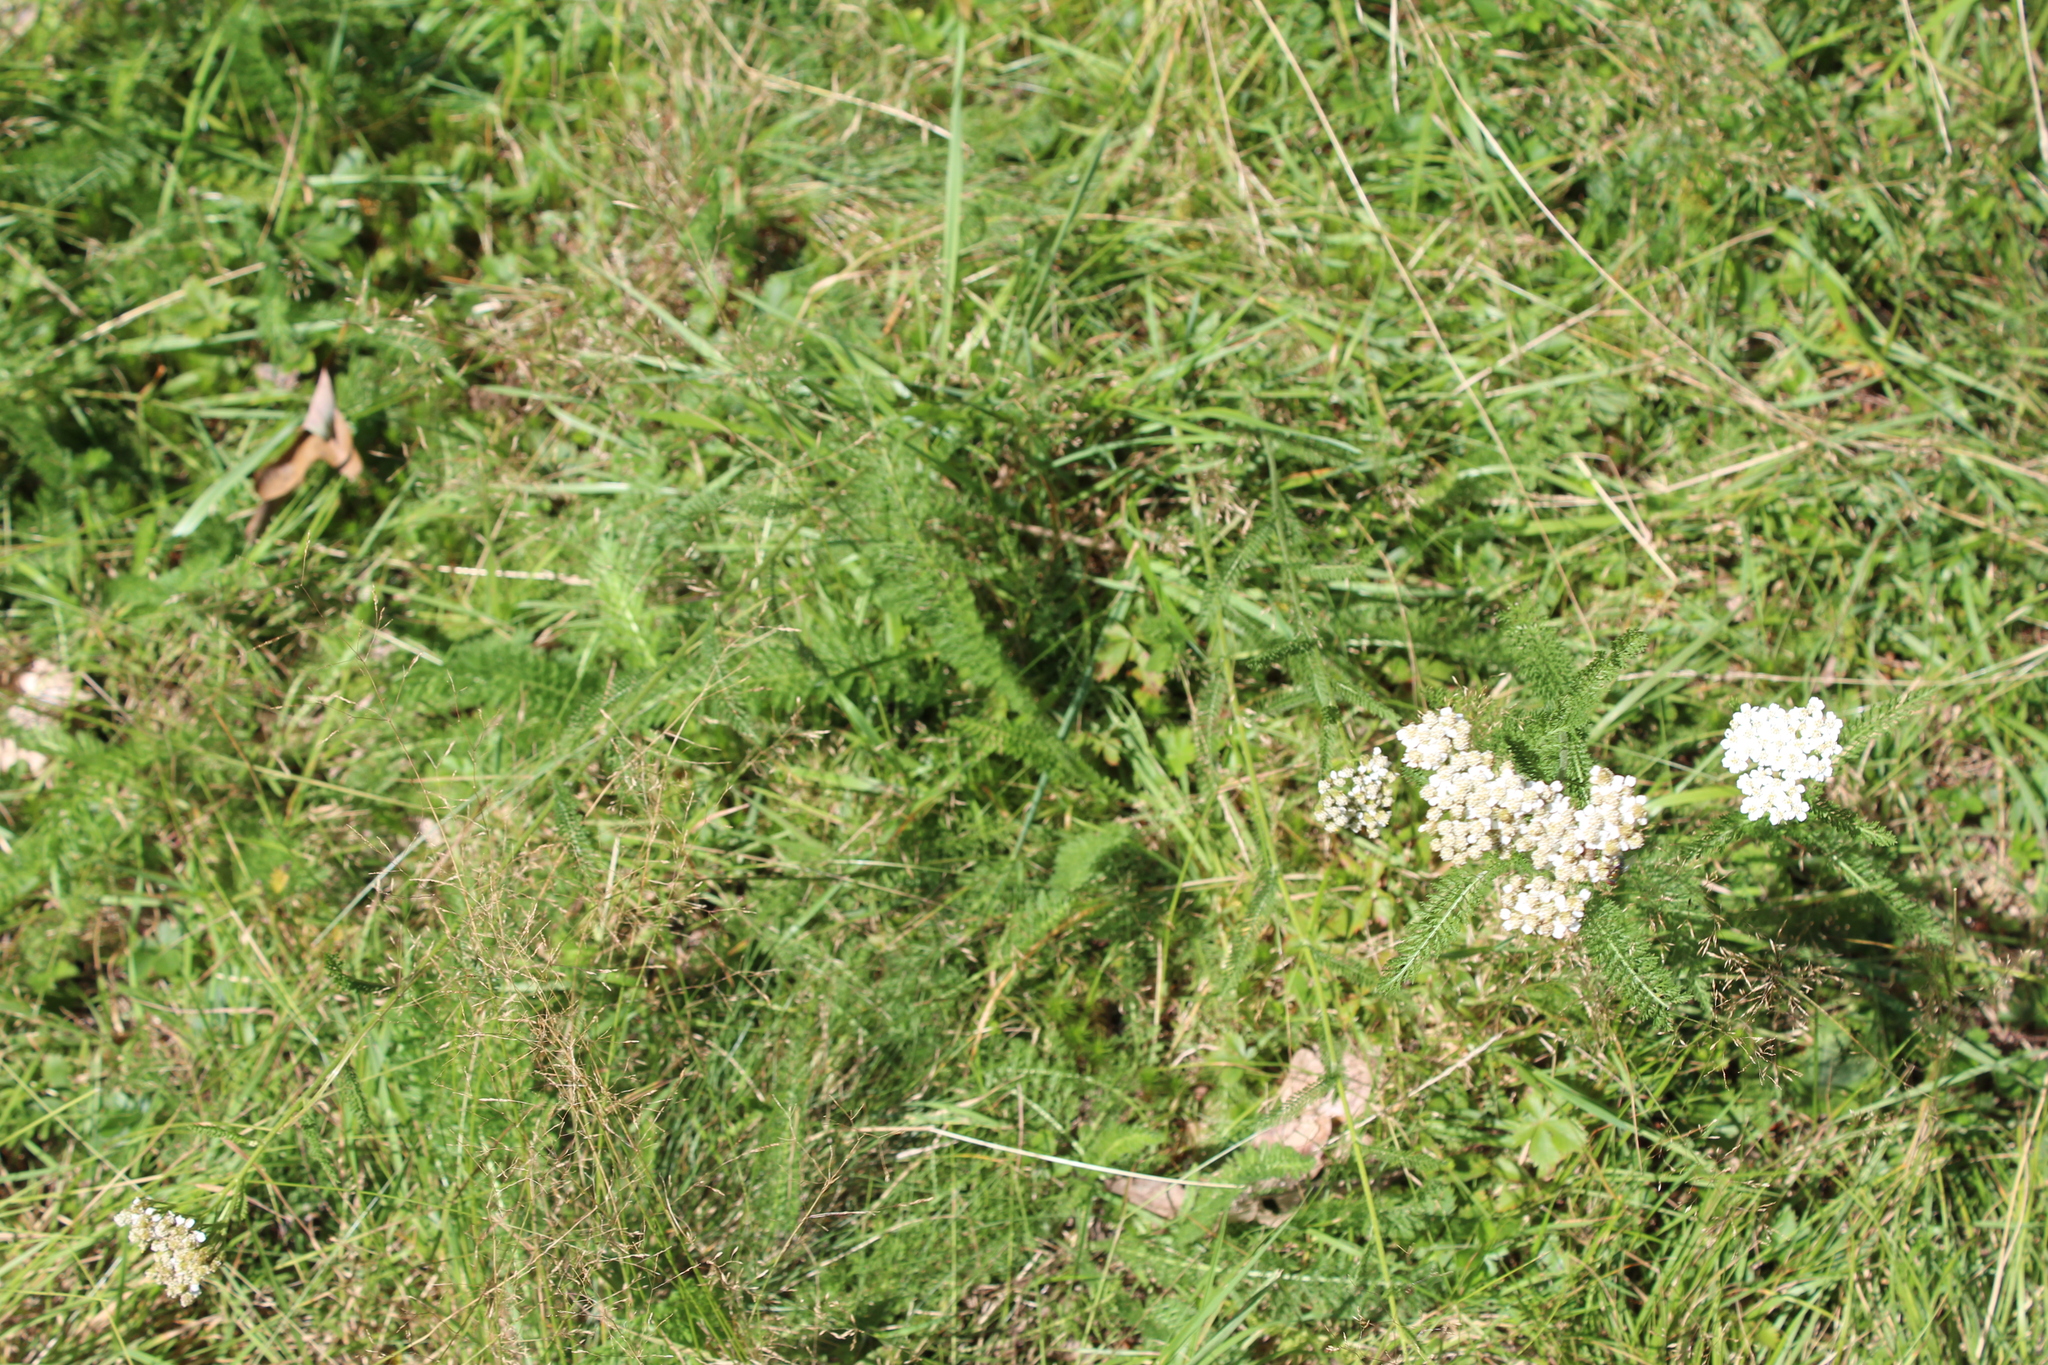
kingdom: Plantae
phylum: Tracheophyta
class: Magnoliopsida
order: Asterales
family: Asteraceae
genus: Achillea
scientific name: Achillea millefolium
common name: Yarrow
